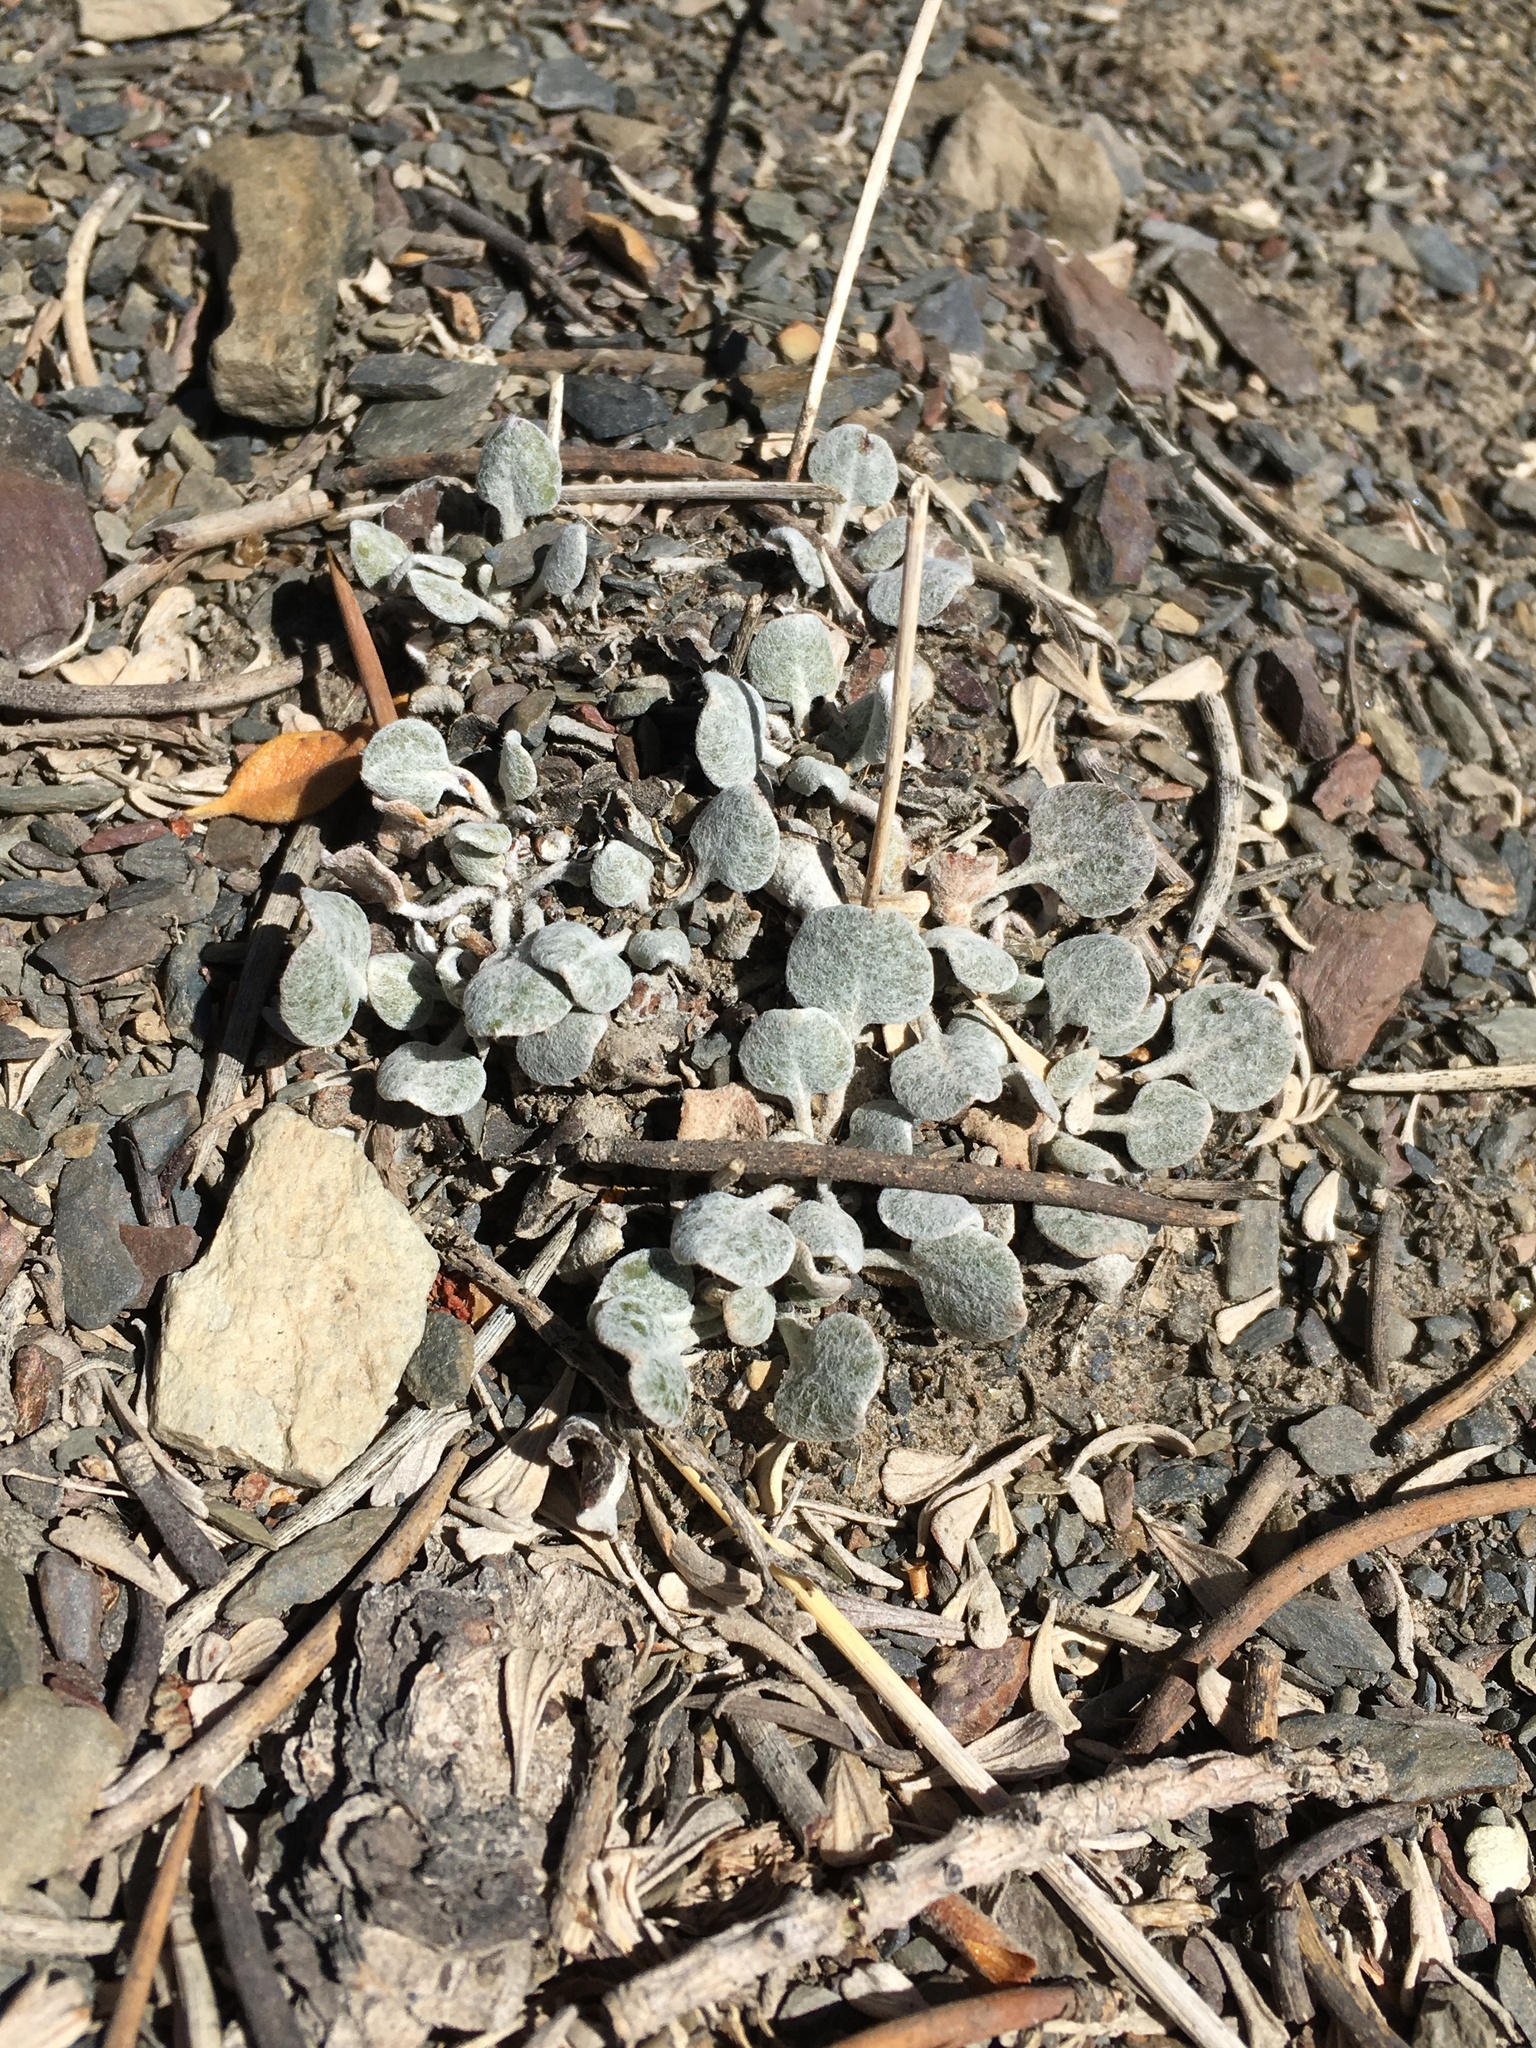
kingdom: Plantae
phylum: Tracheophyta
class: Magnoliopsida
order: Caryophyllales
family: Polygonaceae
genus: Eriogonum
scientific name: Eriogonum mensicola
